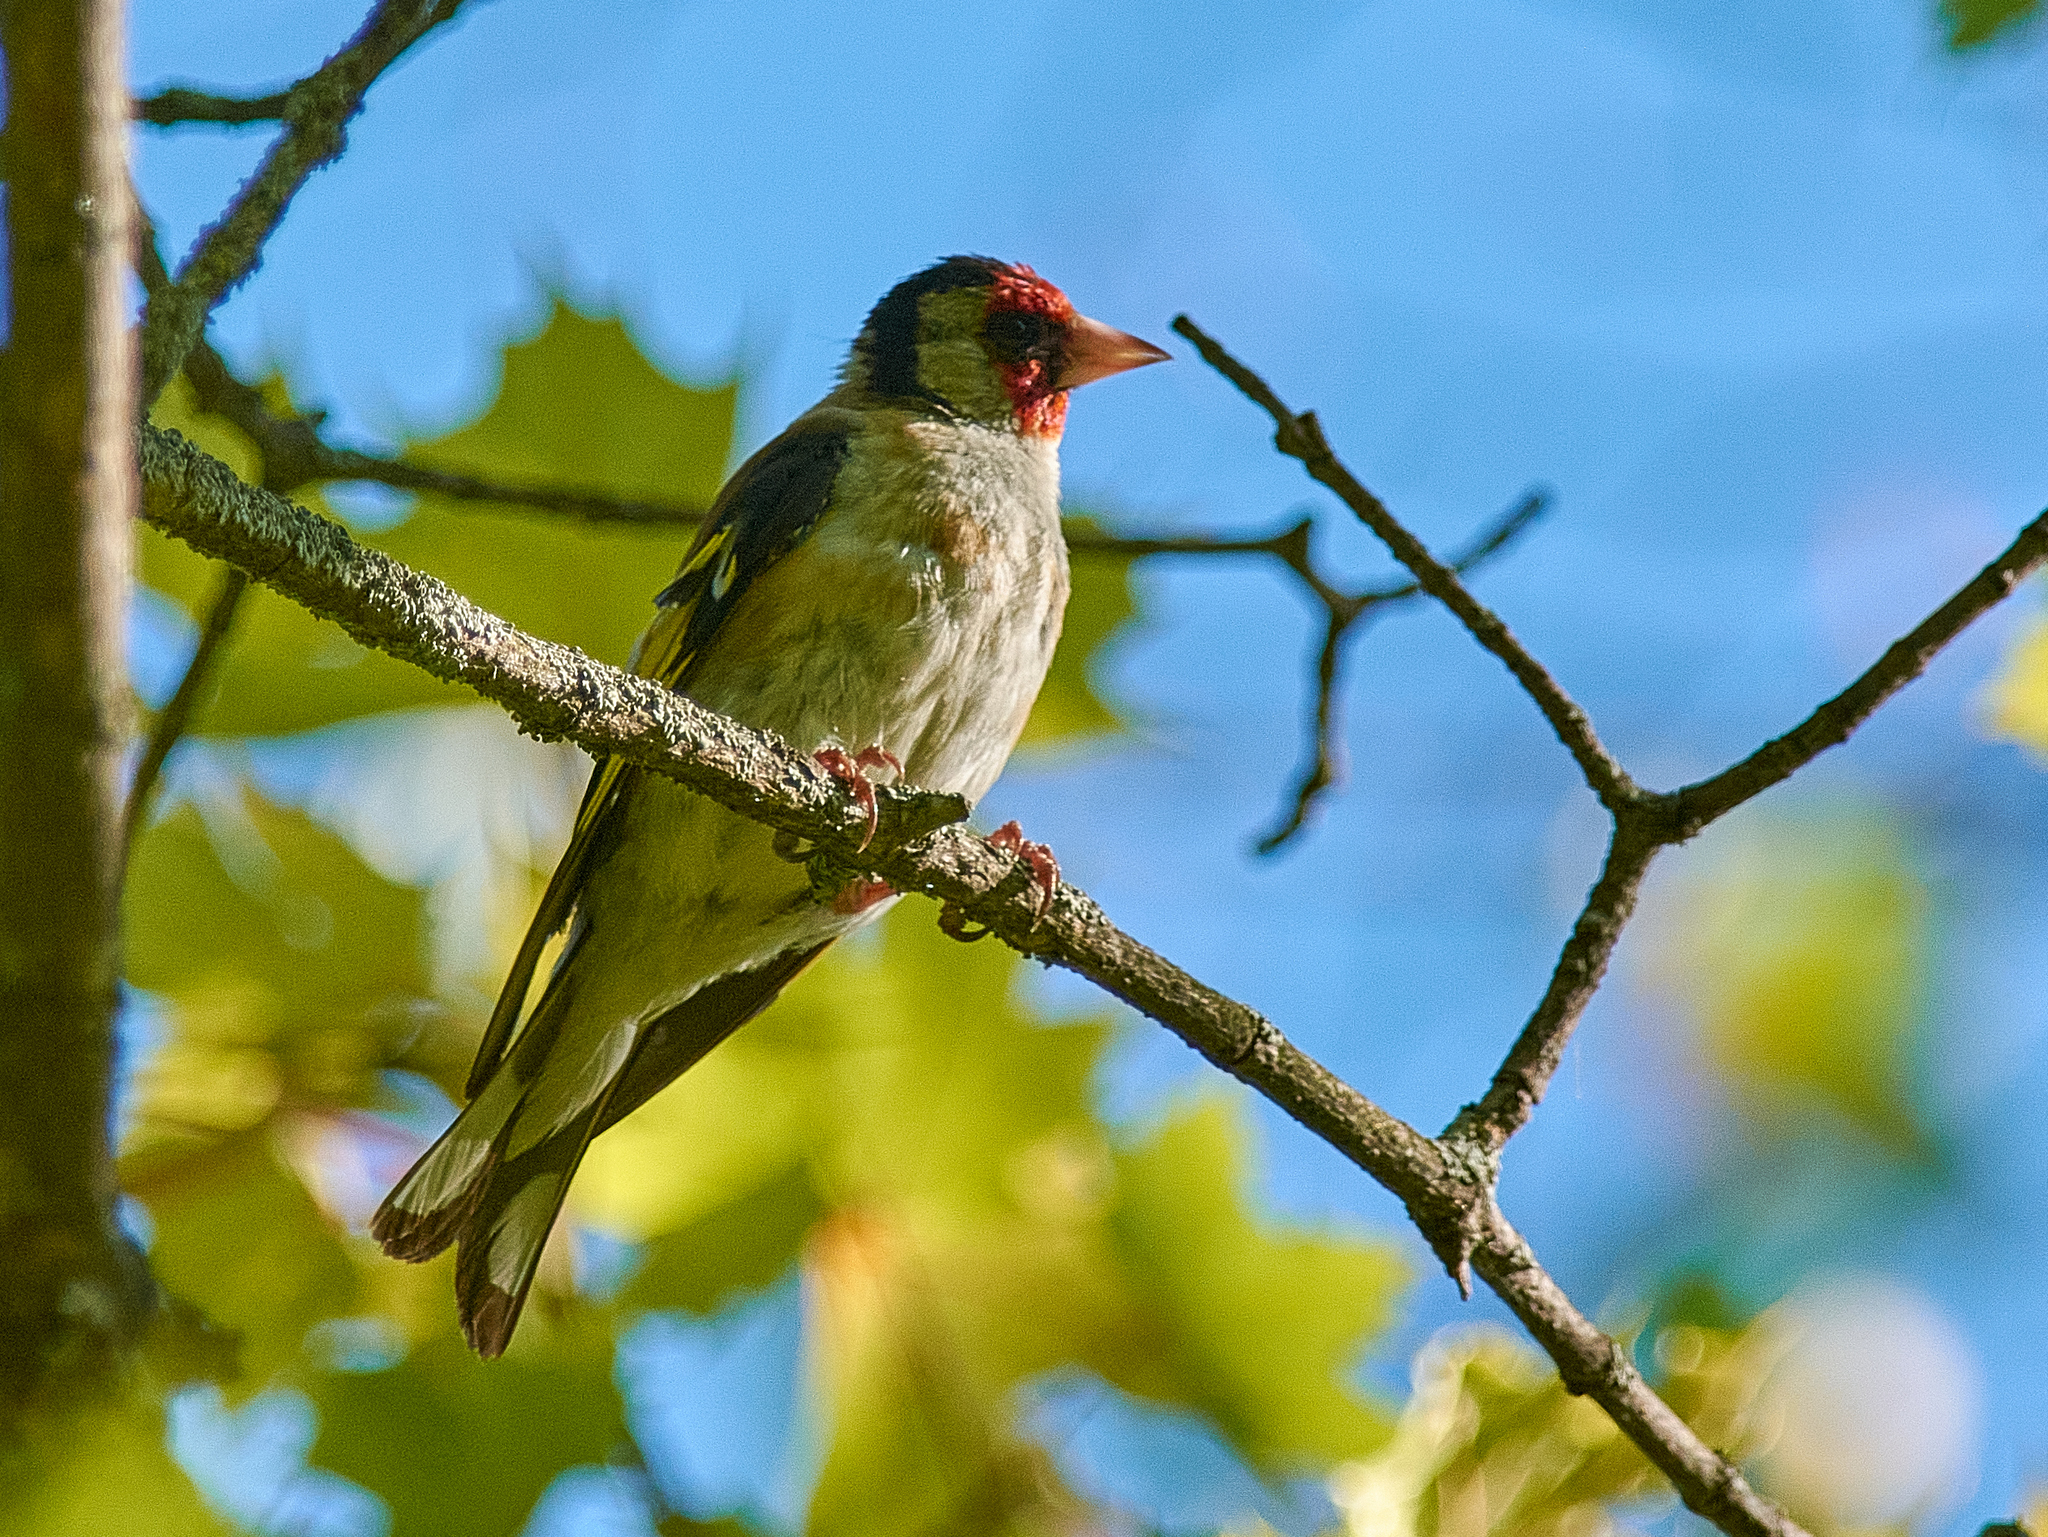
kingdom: Animalia
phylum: Chordata
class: Aves
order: Passeriformes
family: Fringillidae
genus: Carduelis
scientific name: Carduelis carduelis
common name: European goldfinch
